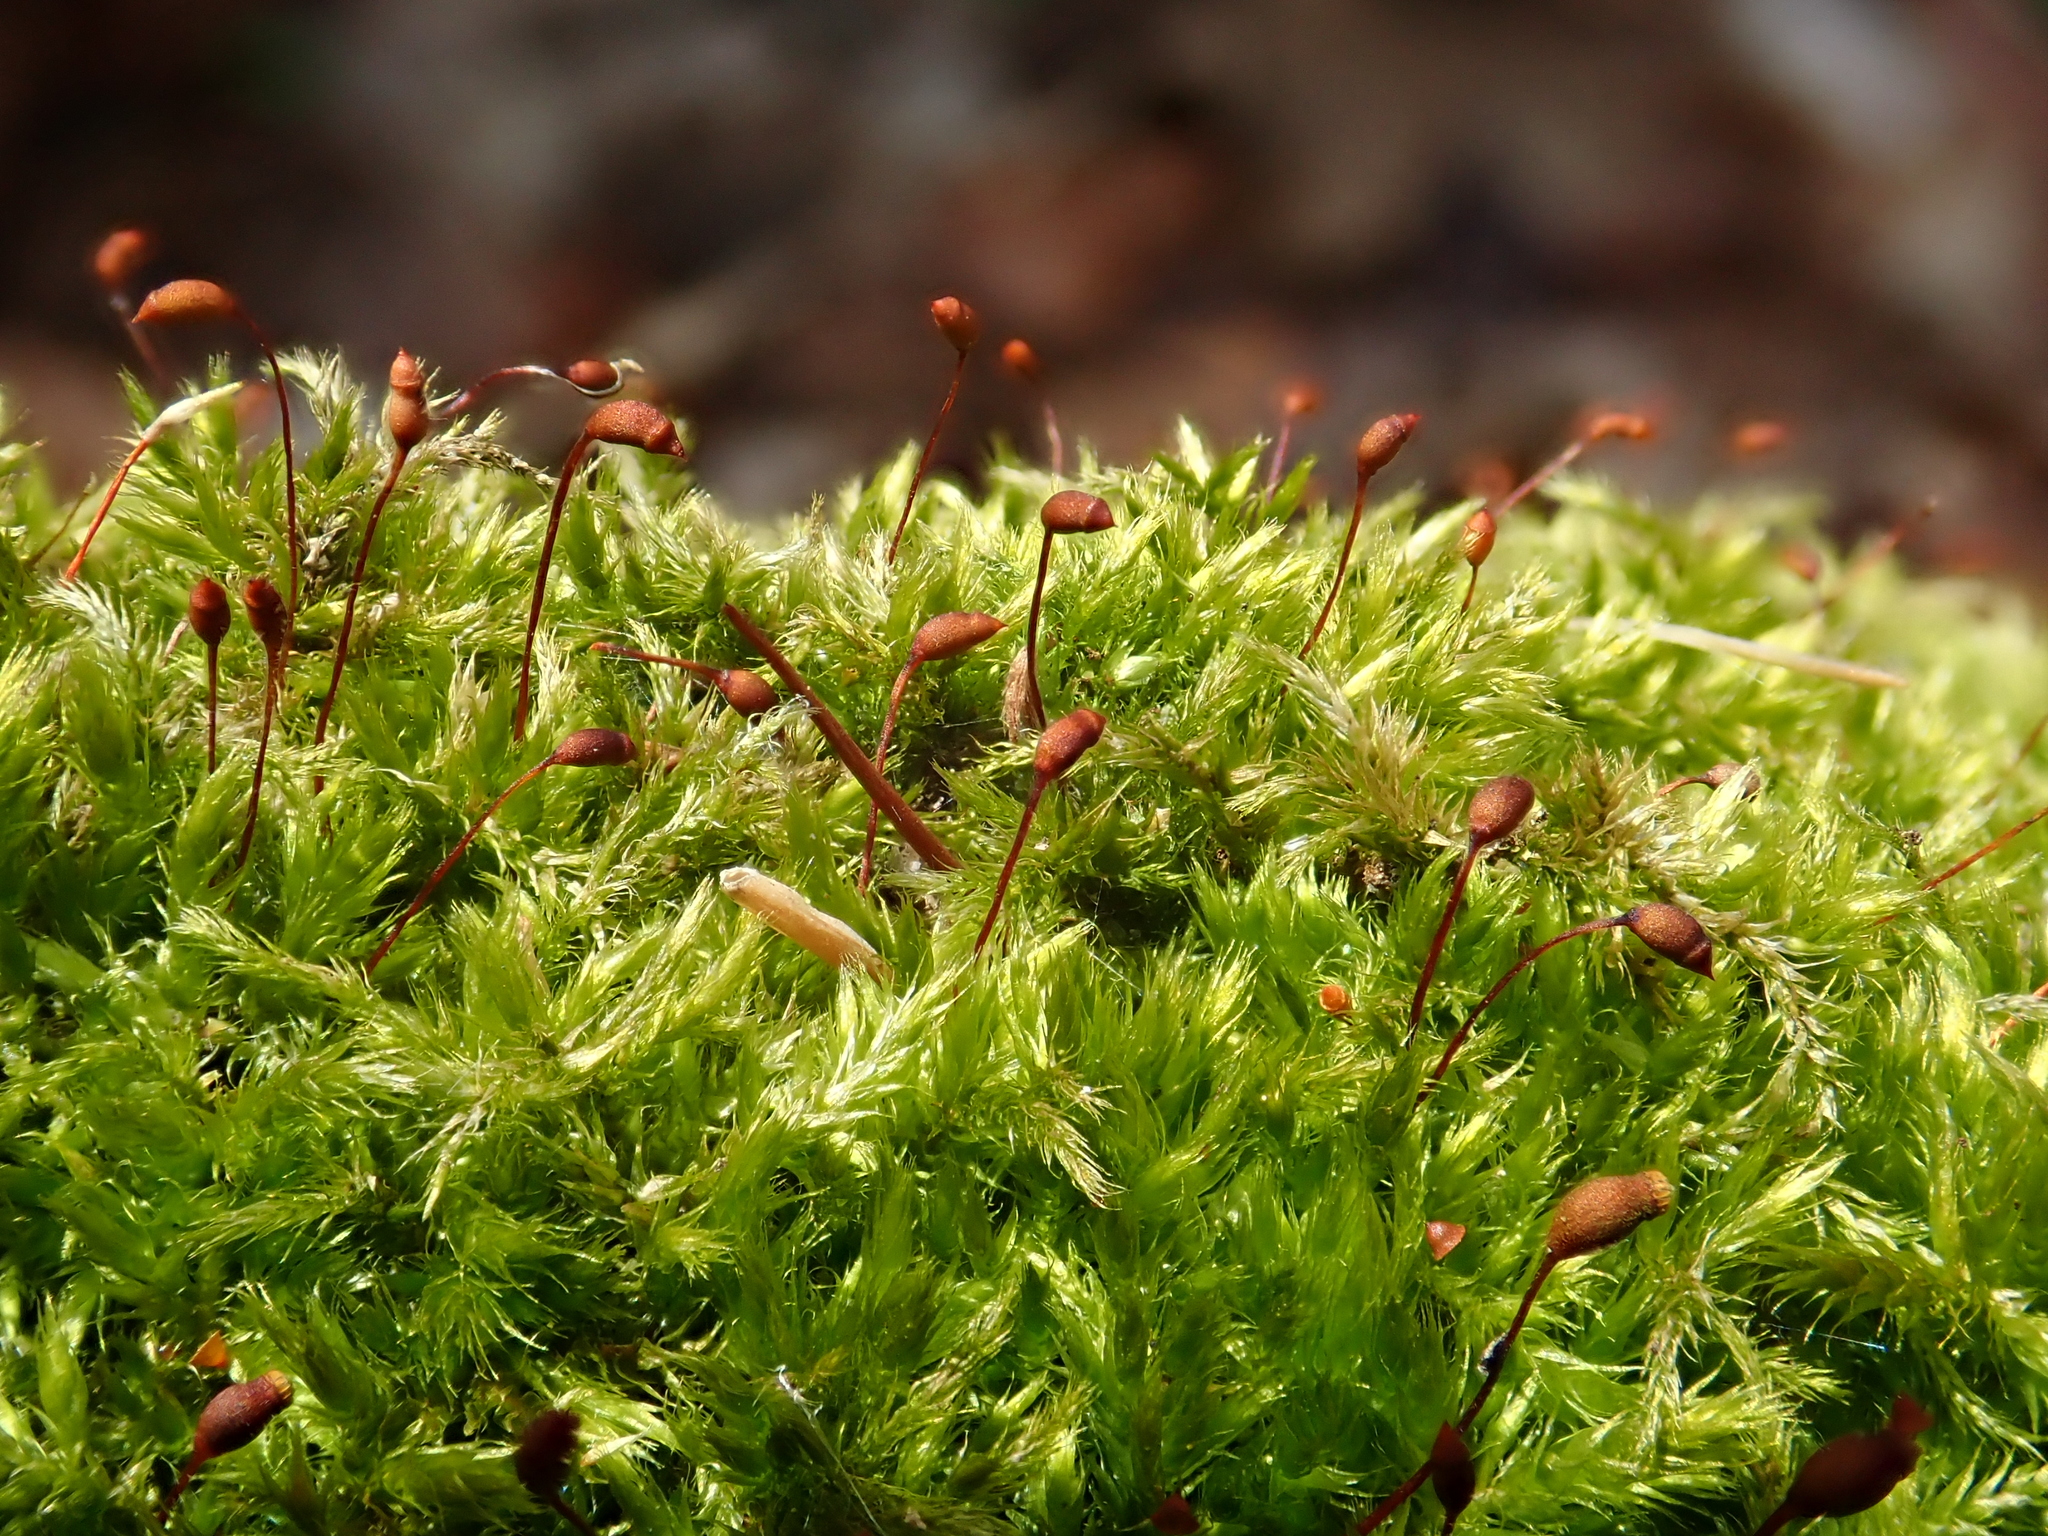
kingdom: Plantae
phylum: Bryophyta
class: Bryopsida
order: Hypnales
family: Brachytheciaceae
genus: Sciuro-hypnum
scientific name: Sciuro-hypnum populeum
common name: Matted feather-moss
